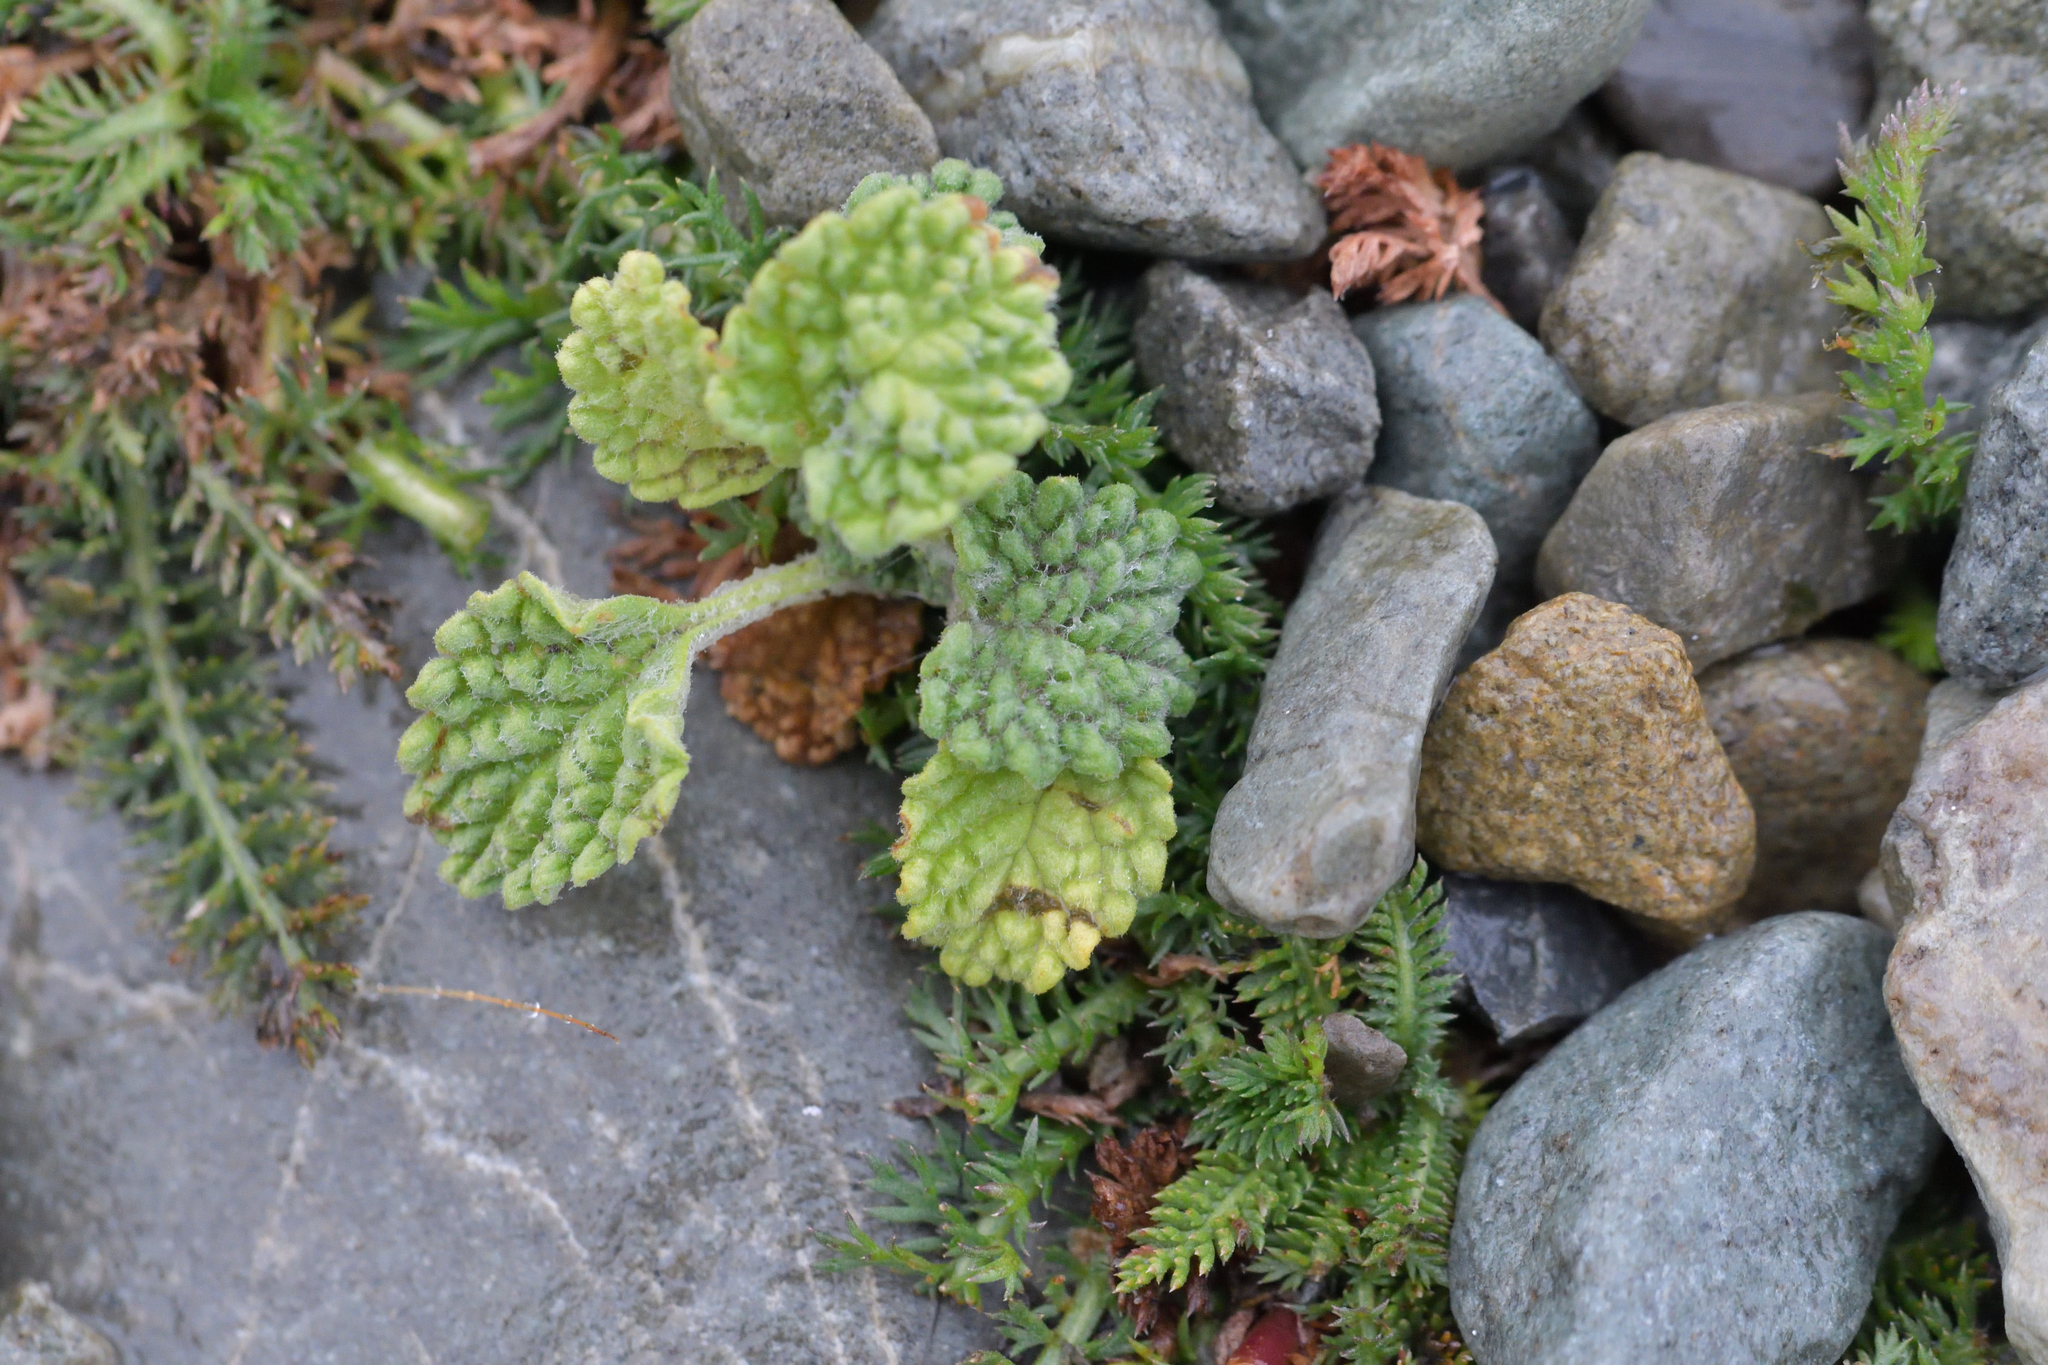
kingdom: Plantae
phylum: Tracheophyta
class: Magnoliopsida
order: Lamiales
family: Lamiaceae
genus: Marrubium
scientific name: Marrubium vulgare
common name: Horehound
